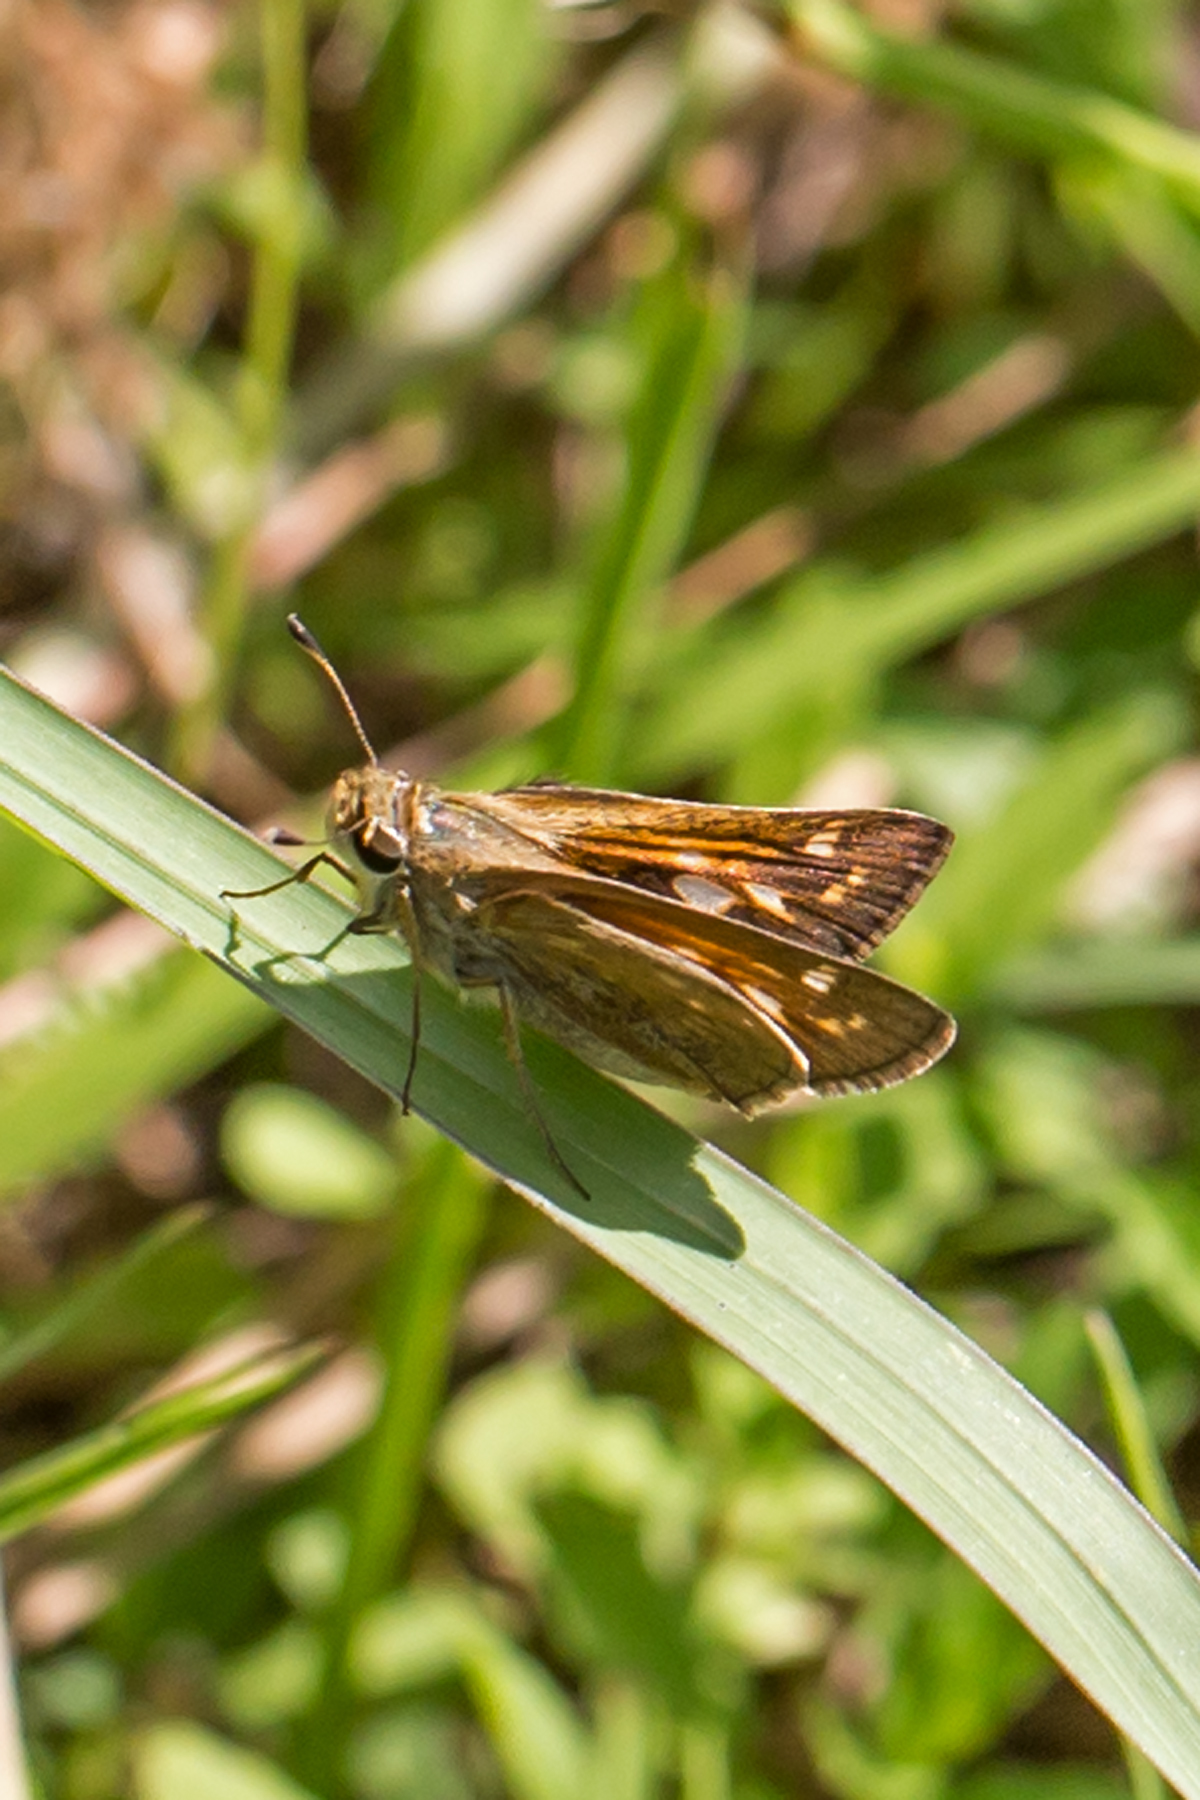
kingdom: Animalia
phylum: Arthropoda
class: Insecta
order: Lepidoptera
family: Hesperiidae
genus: Atalopedes
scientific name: Atalopedes
